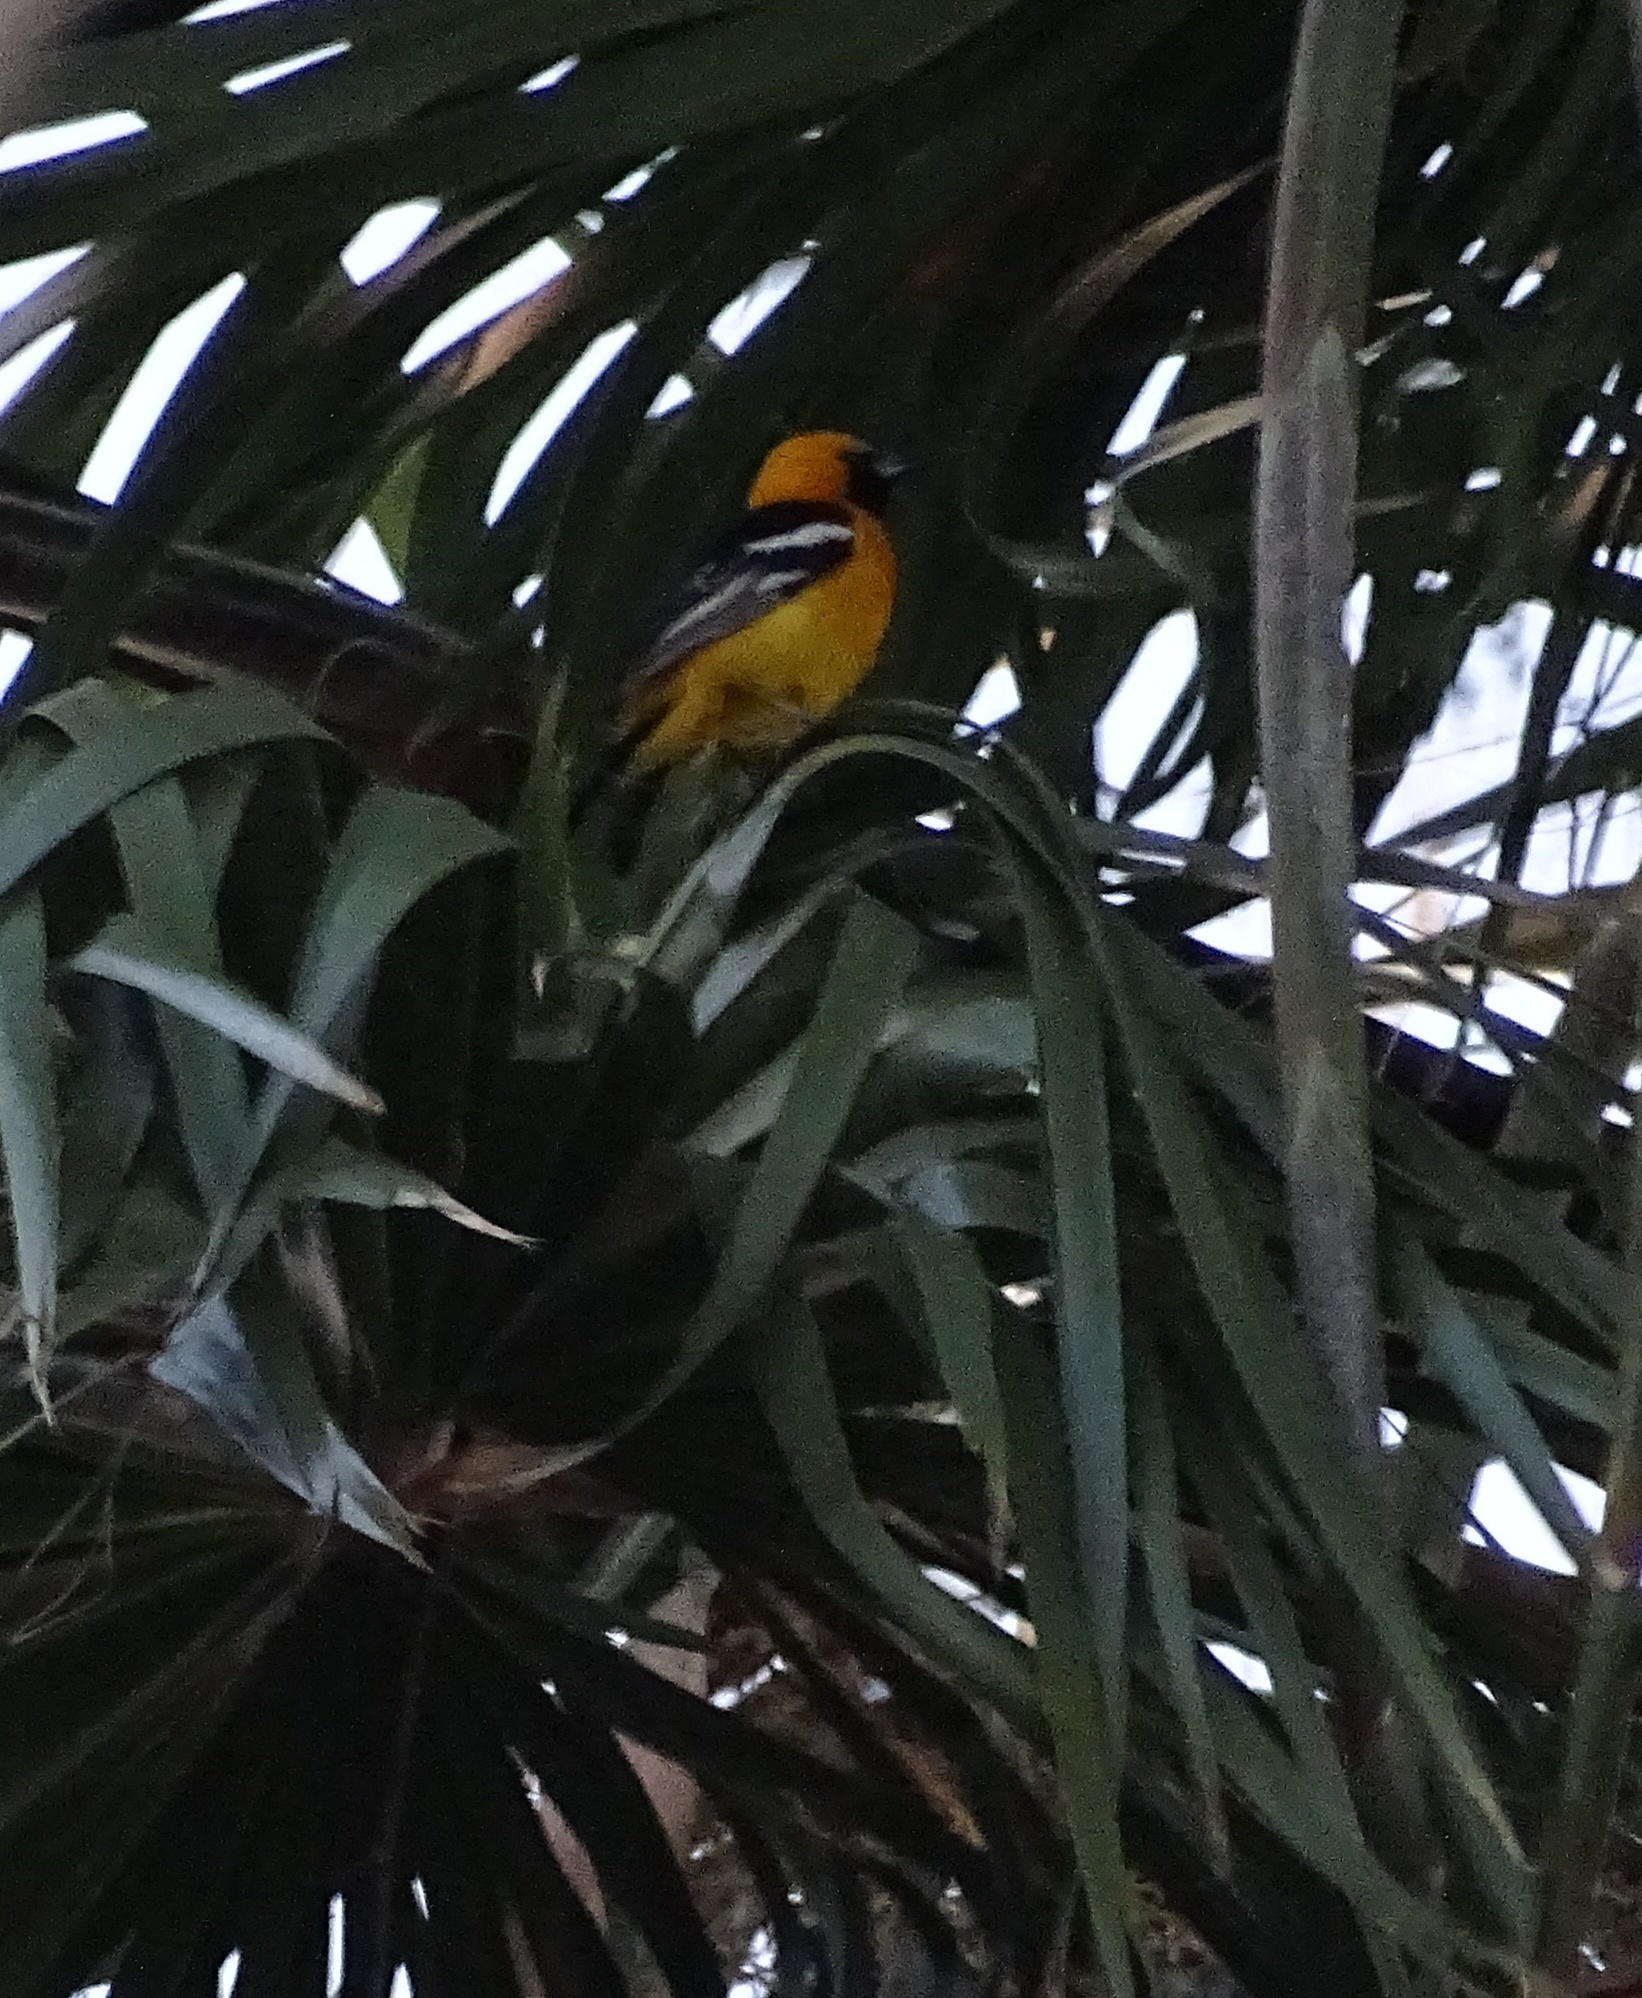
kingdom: Animalia
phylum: Chordata
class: Aves
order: Passeriformes
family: Icteridae
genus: Icterus
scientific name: Icterus cucullatus
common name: Hooded oriole
